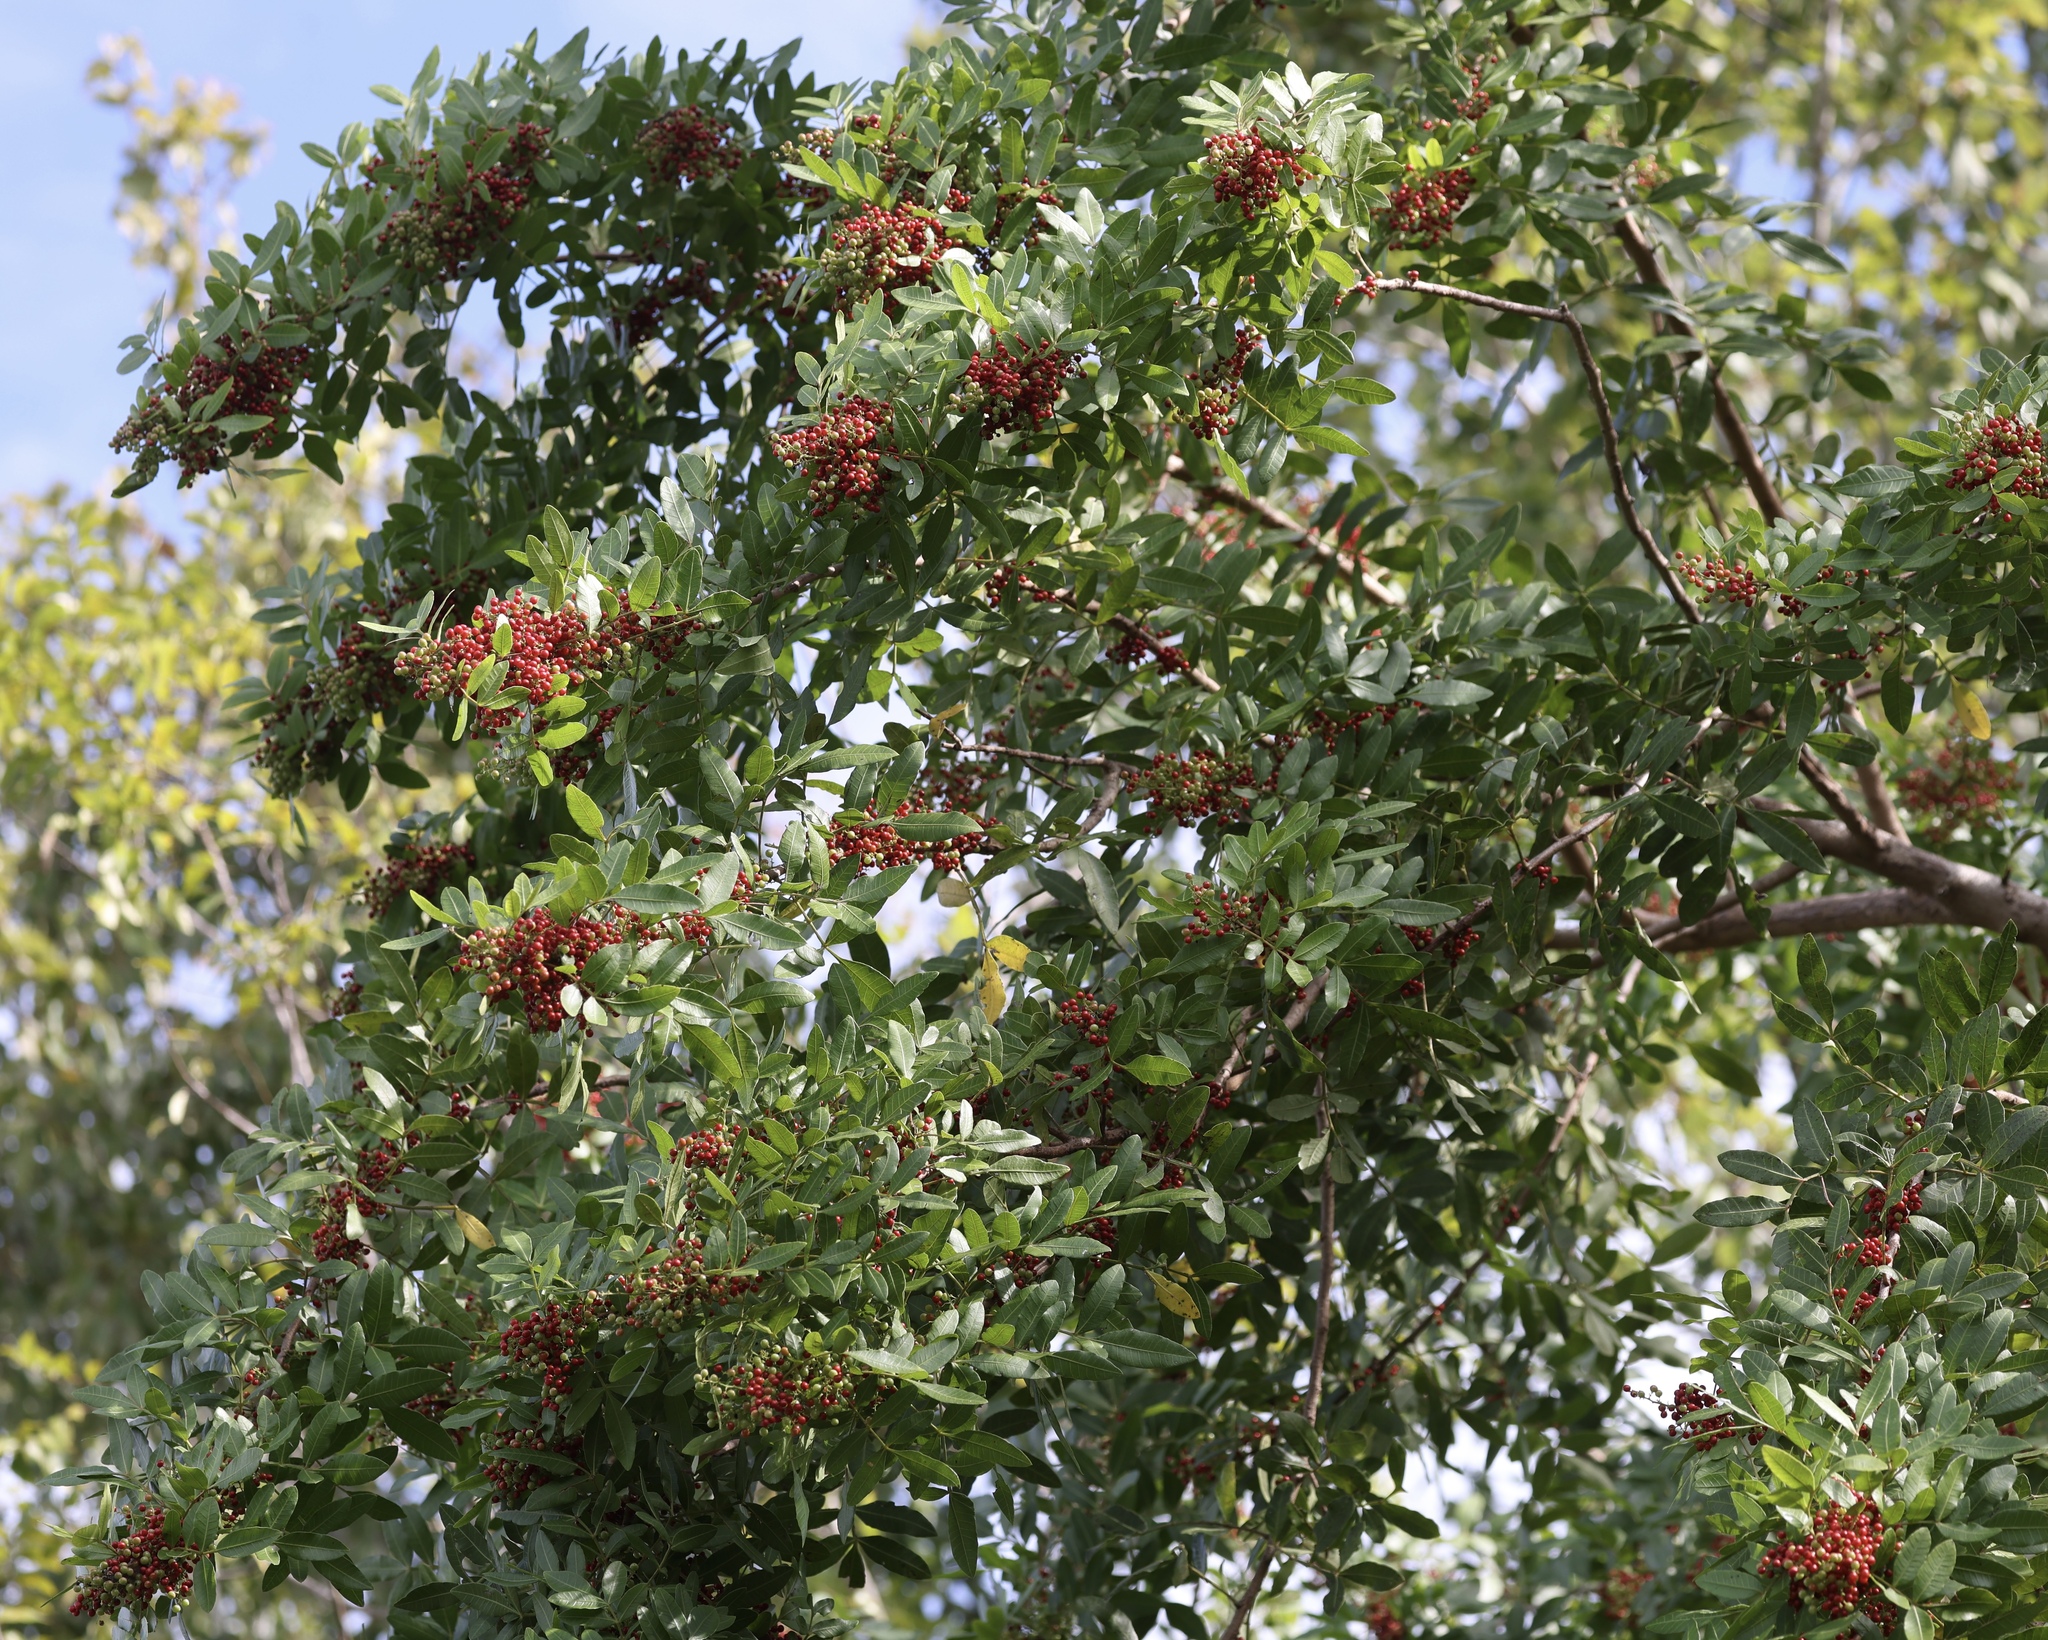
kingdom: Plantae
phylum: Tracheophyta
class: Magnoliopsida
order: Sapindales
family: Anacardiaceae
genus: Schinus
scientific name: Schinus terebinthifolia
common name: Brazilian peppertree
